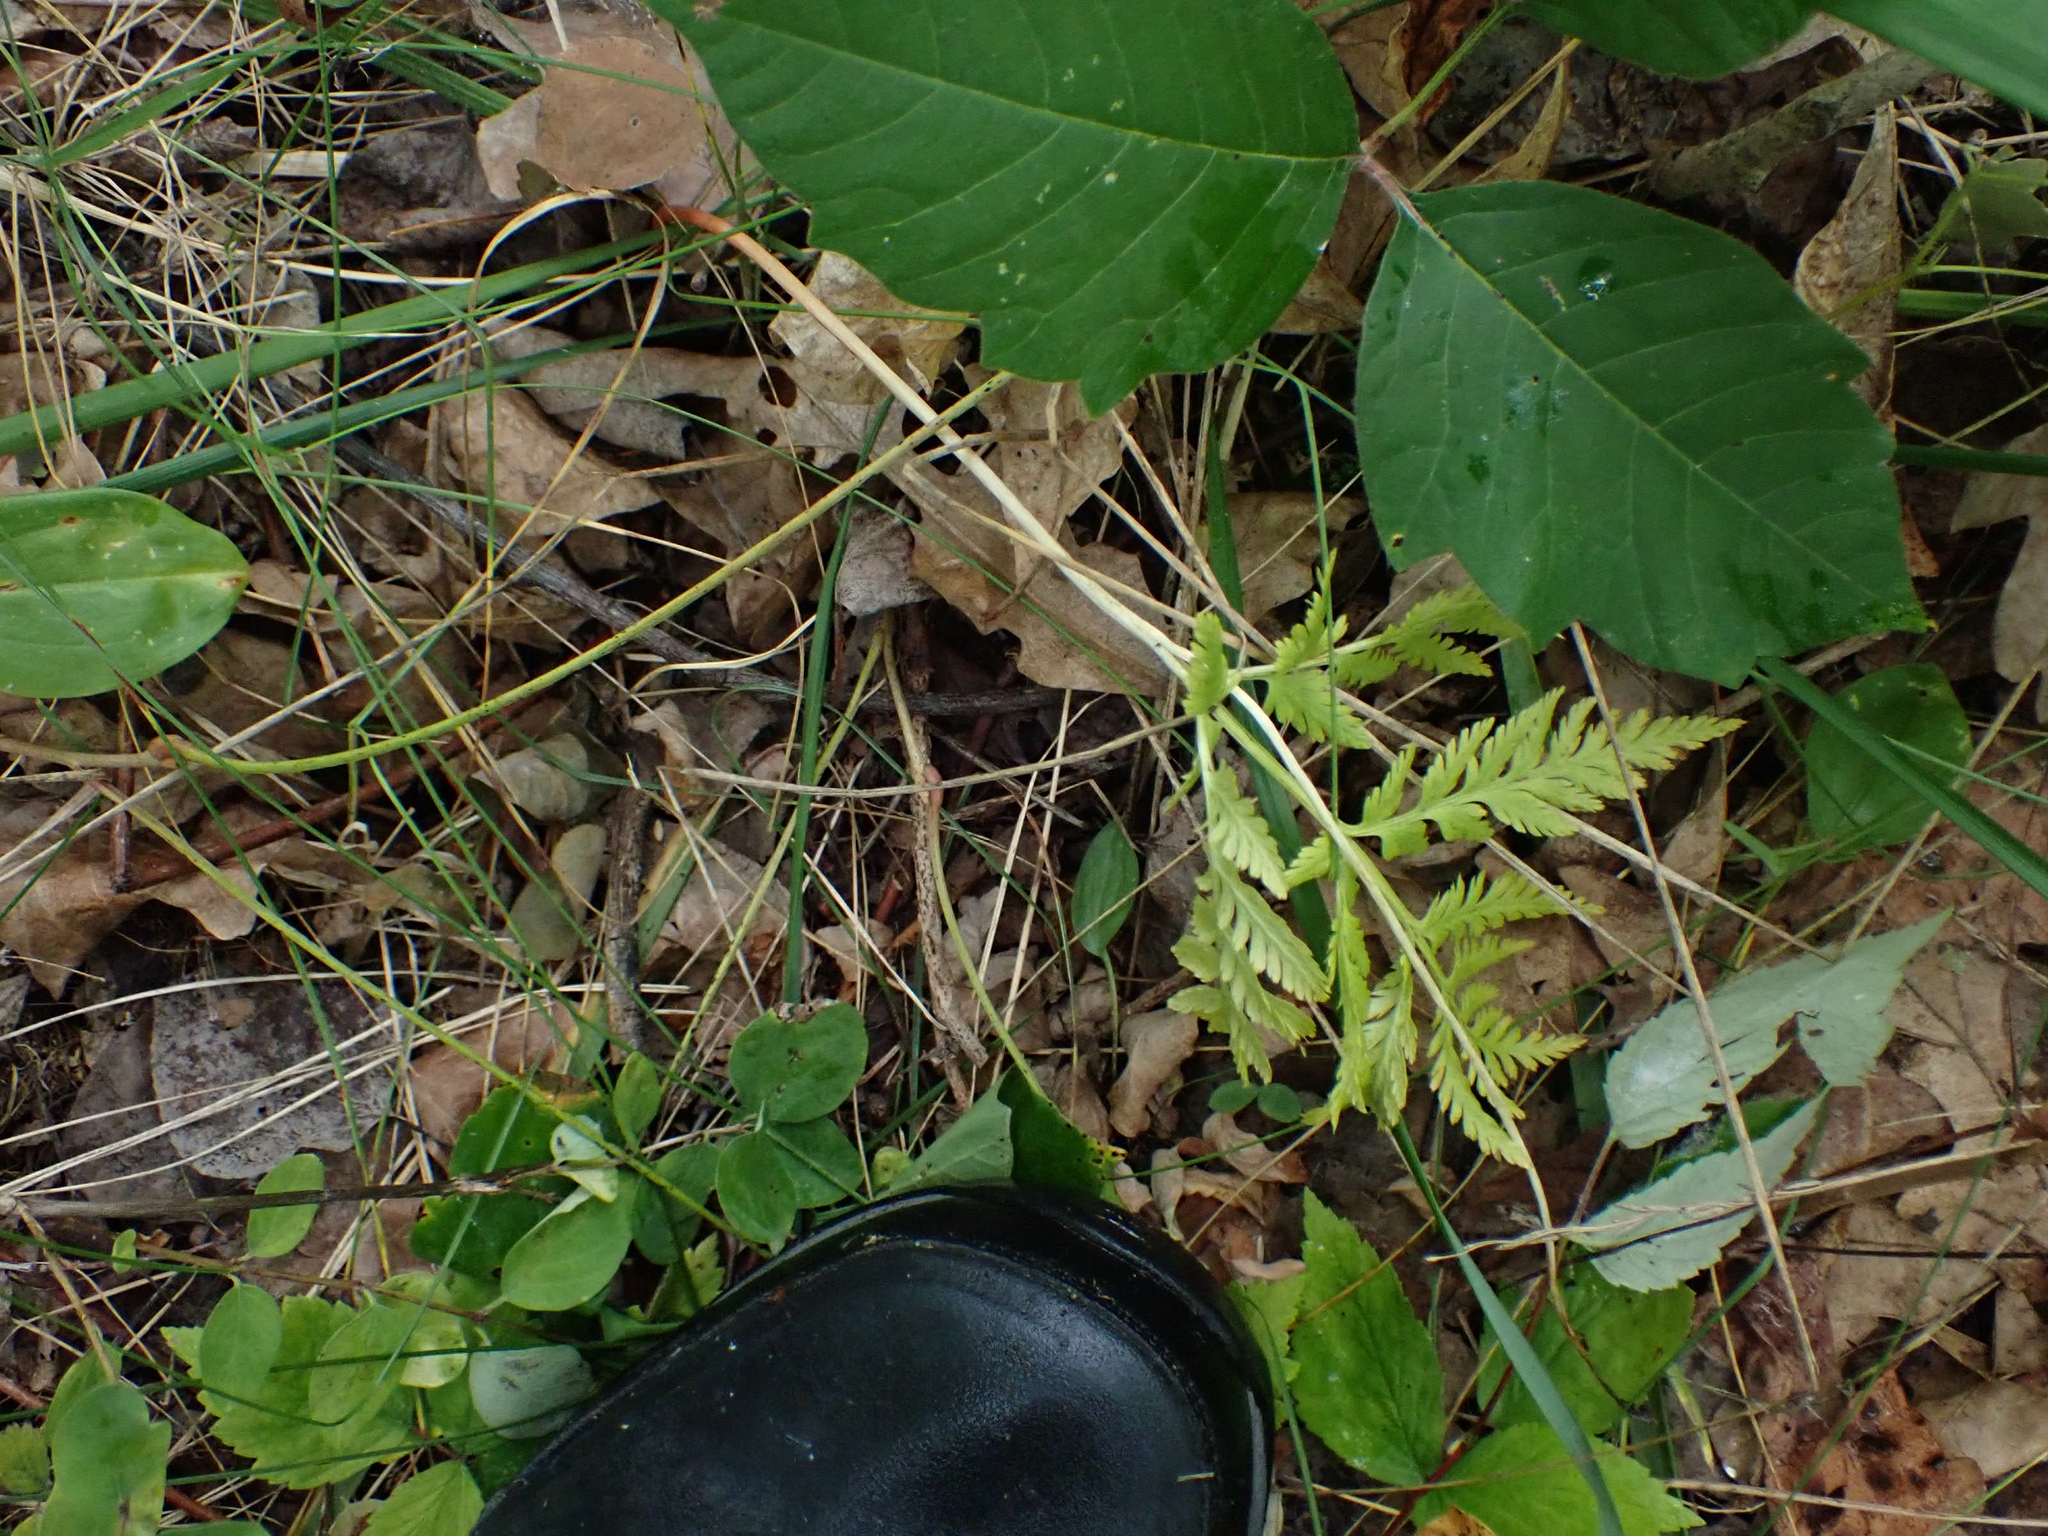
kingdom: Plantae
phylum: Tracheophyta
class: Polypodiopsida
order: Ophioglossales
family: Ophioglossaceae
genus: Botrypus
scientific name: Botrypus virginianus
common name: Common grapefern
